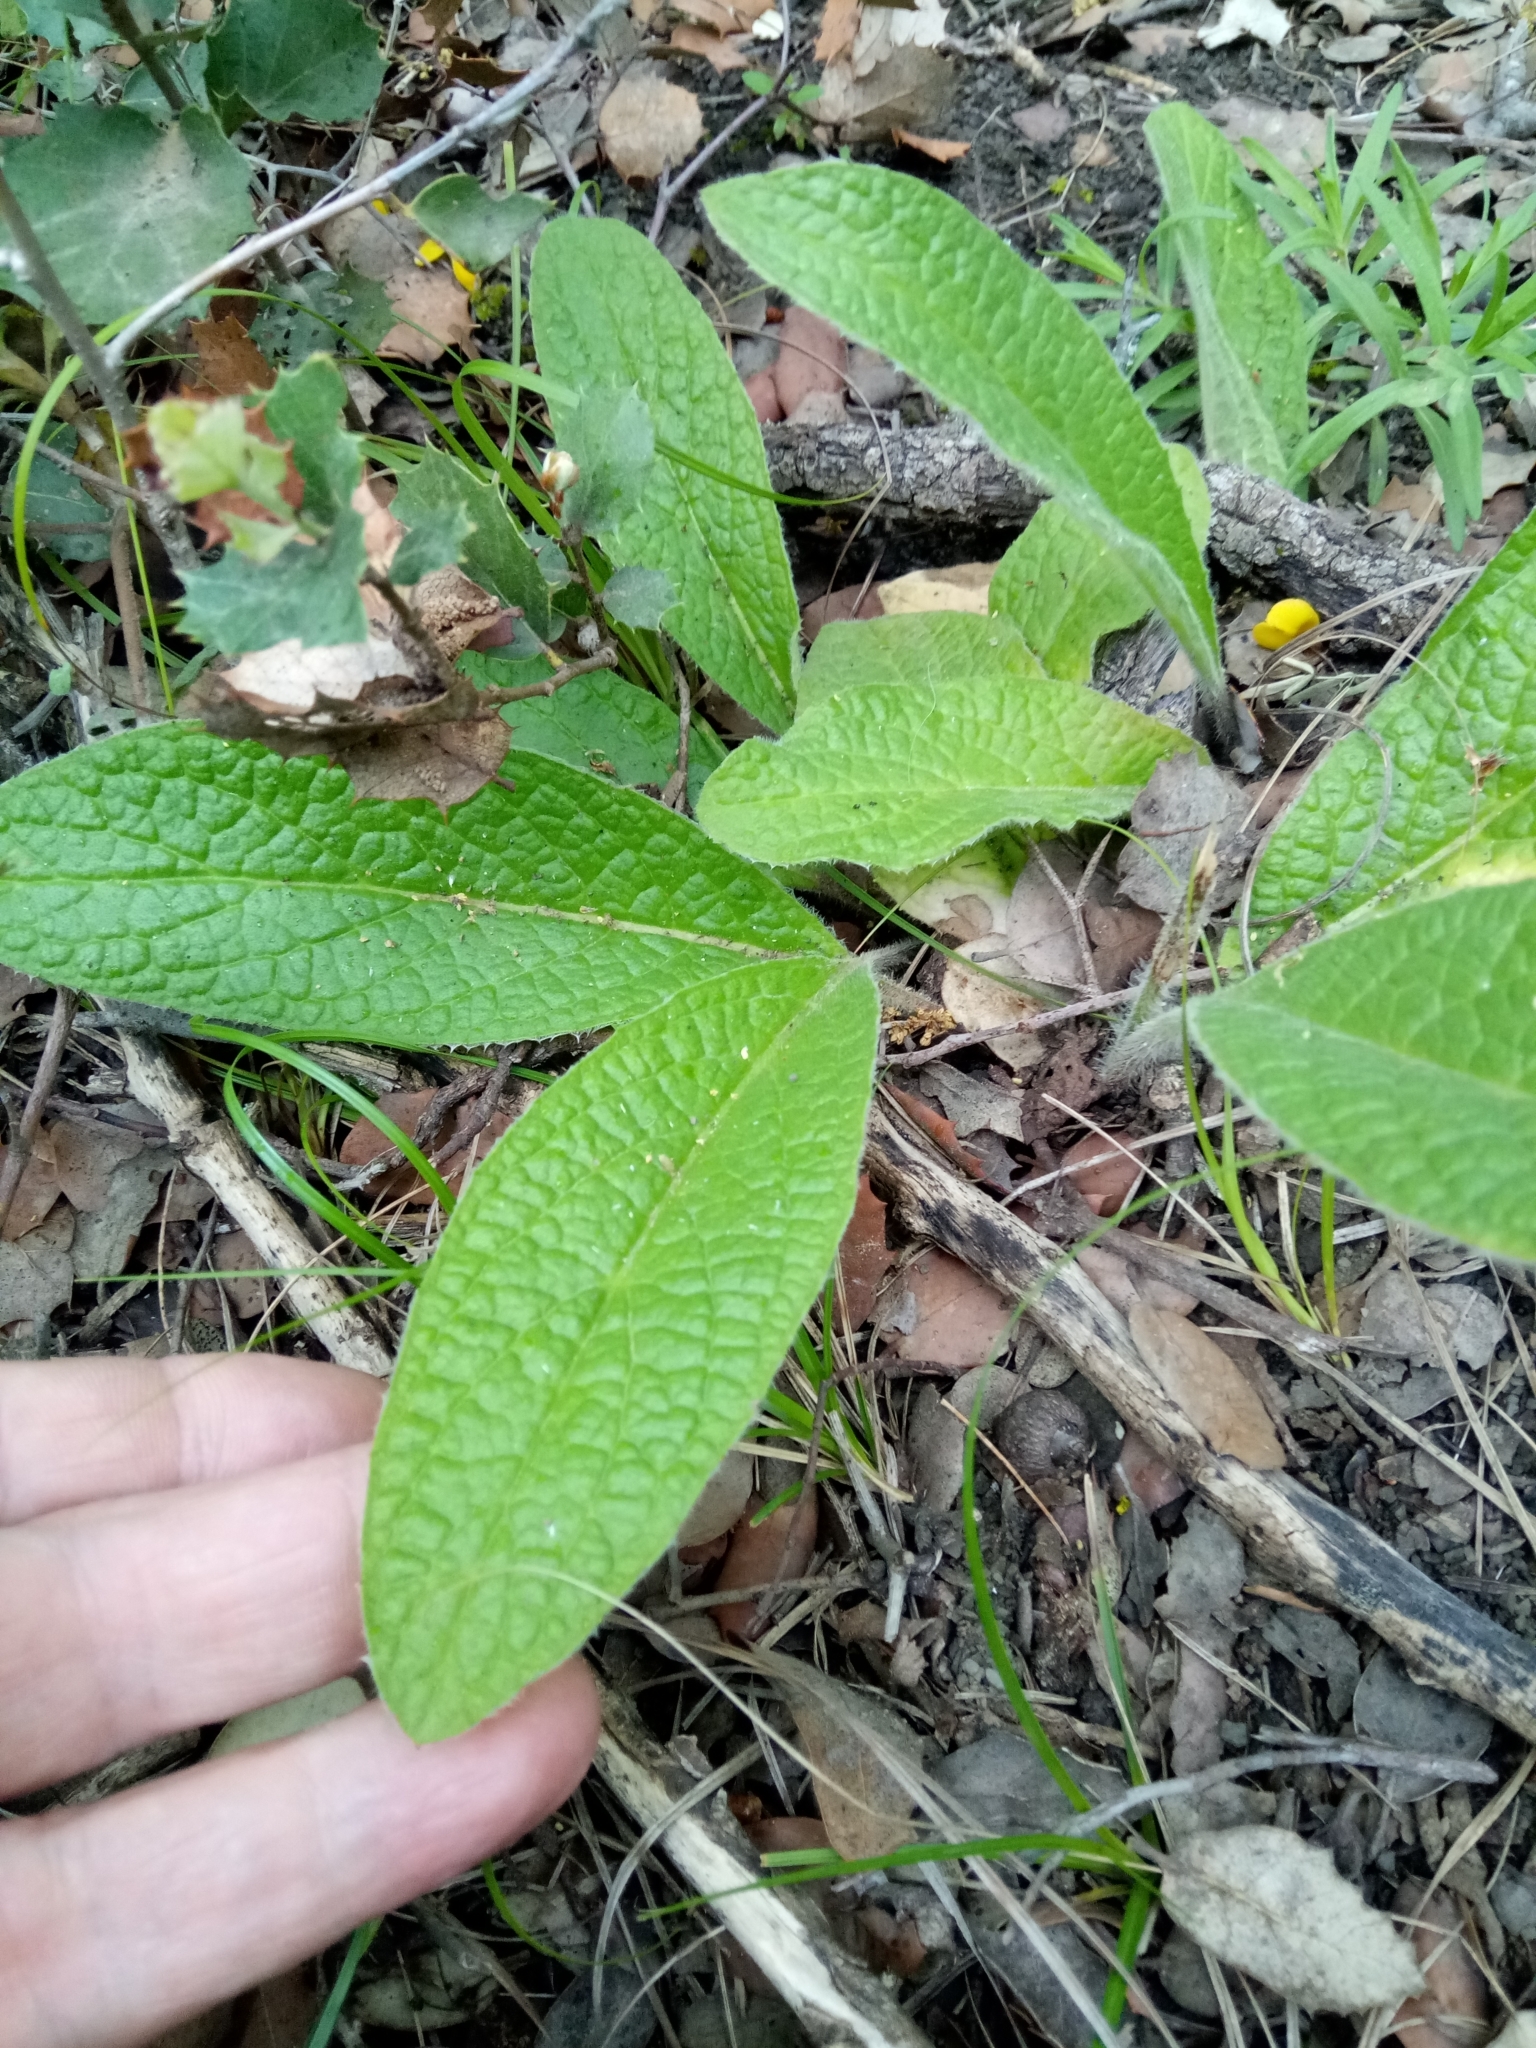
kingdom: Plantae
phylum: Tracheophyta
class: Magnoliopsida
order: Asterales
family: Asteraceae
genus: Pulicaria
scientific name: Pulicaria odora
